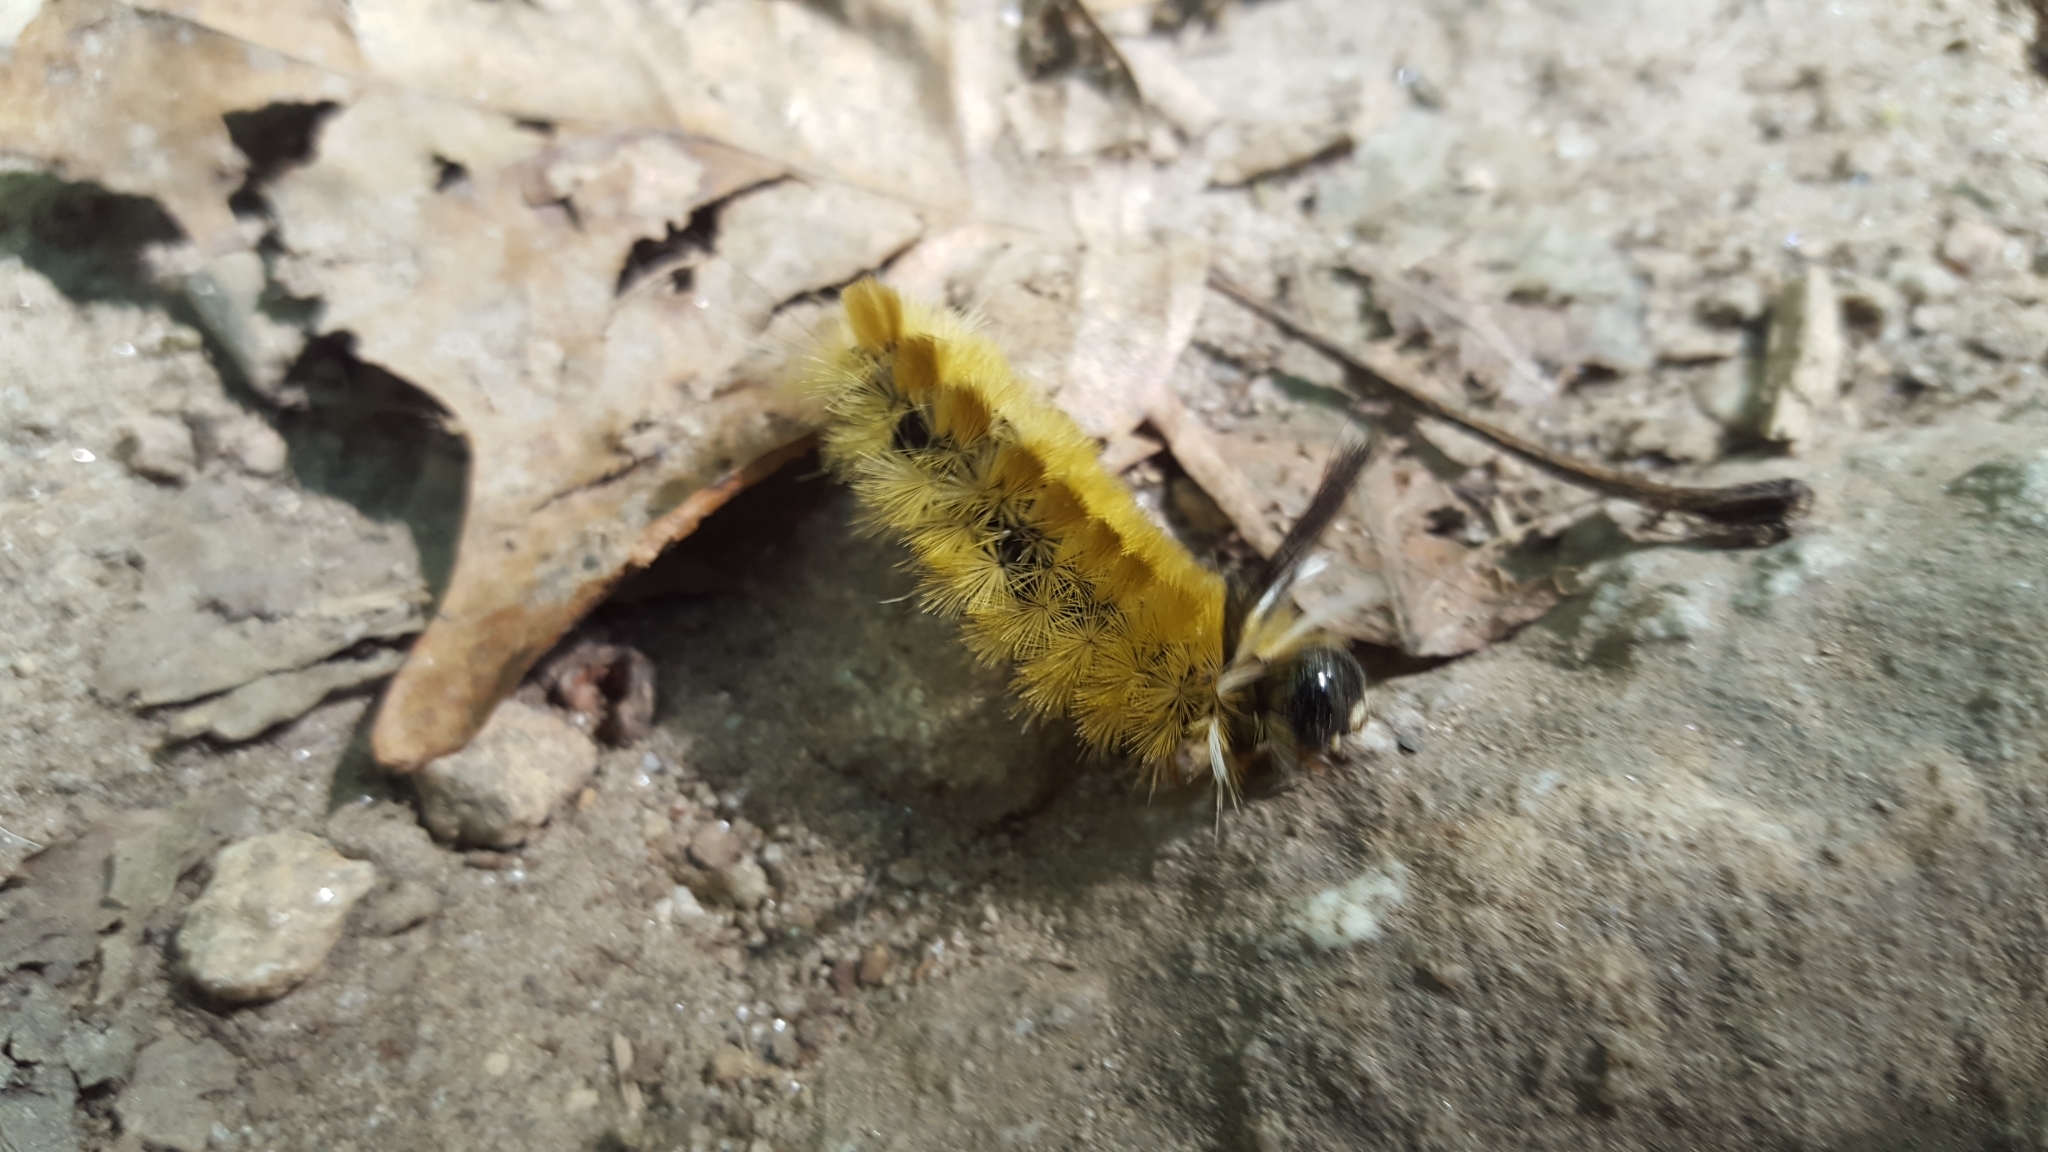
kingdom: Animalia
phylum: Arthropoda
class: Insecta
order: Lepidoptera
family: Erebidae
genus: Halysidota
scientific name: Halysidota tessellaris
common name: Banded tussock moth
